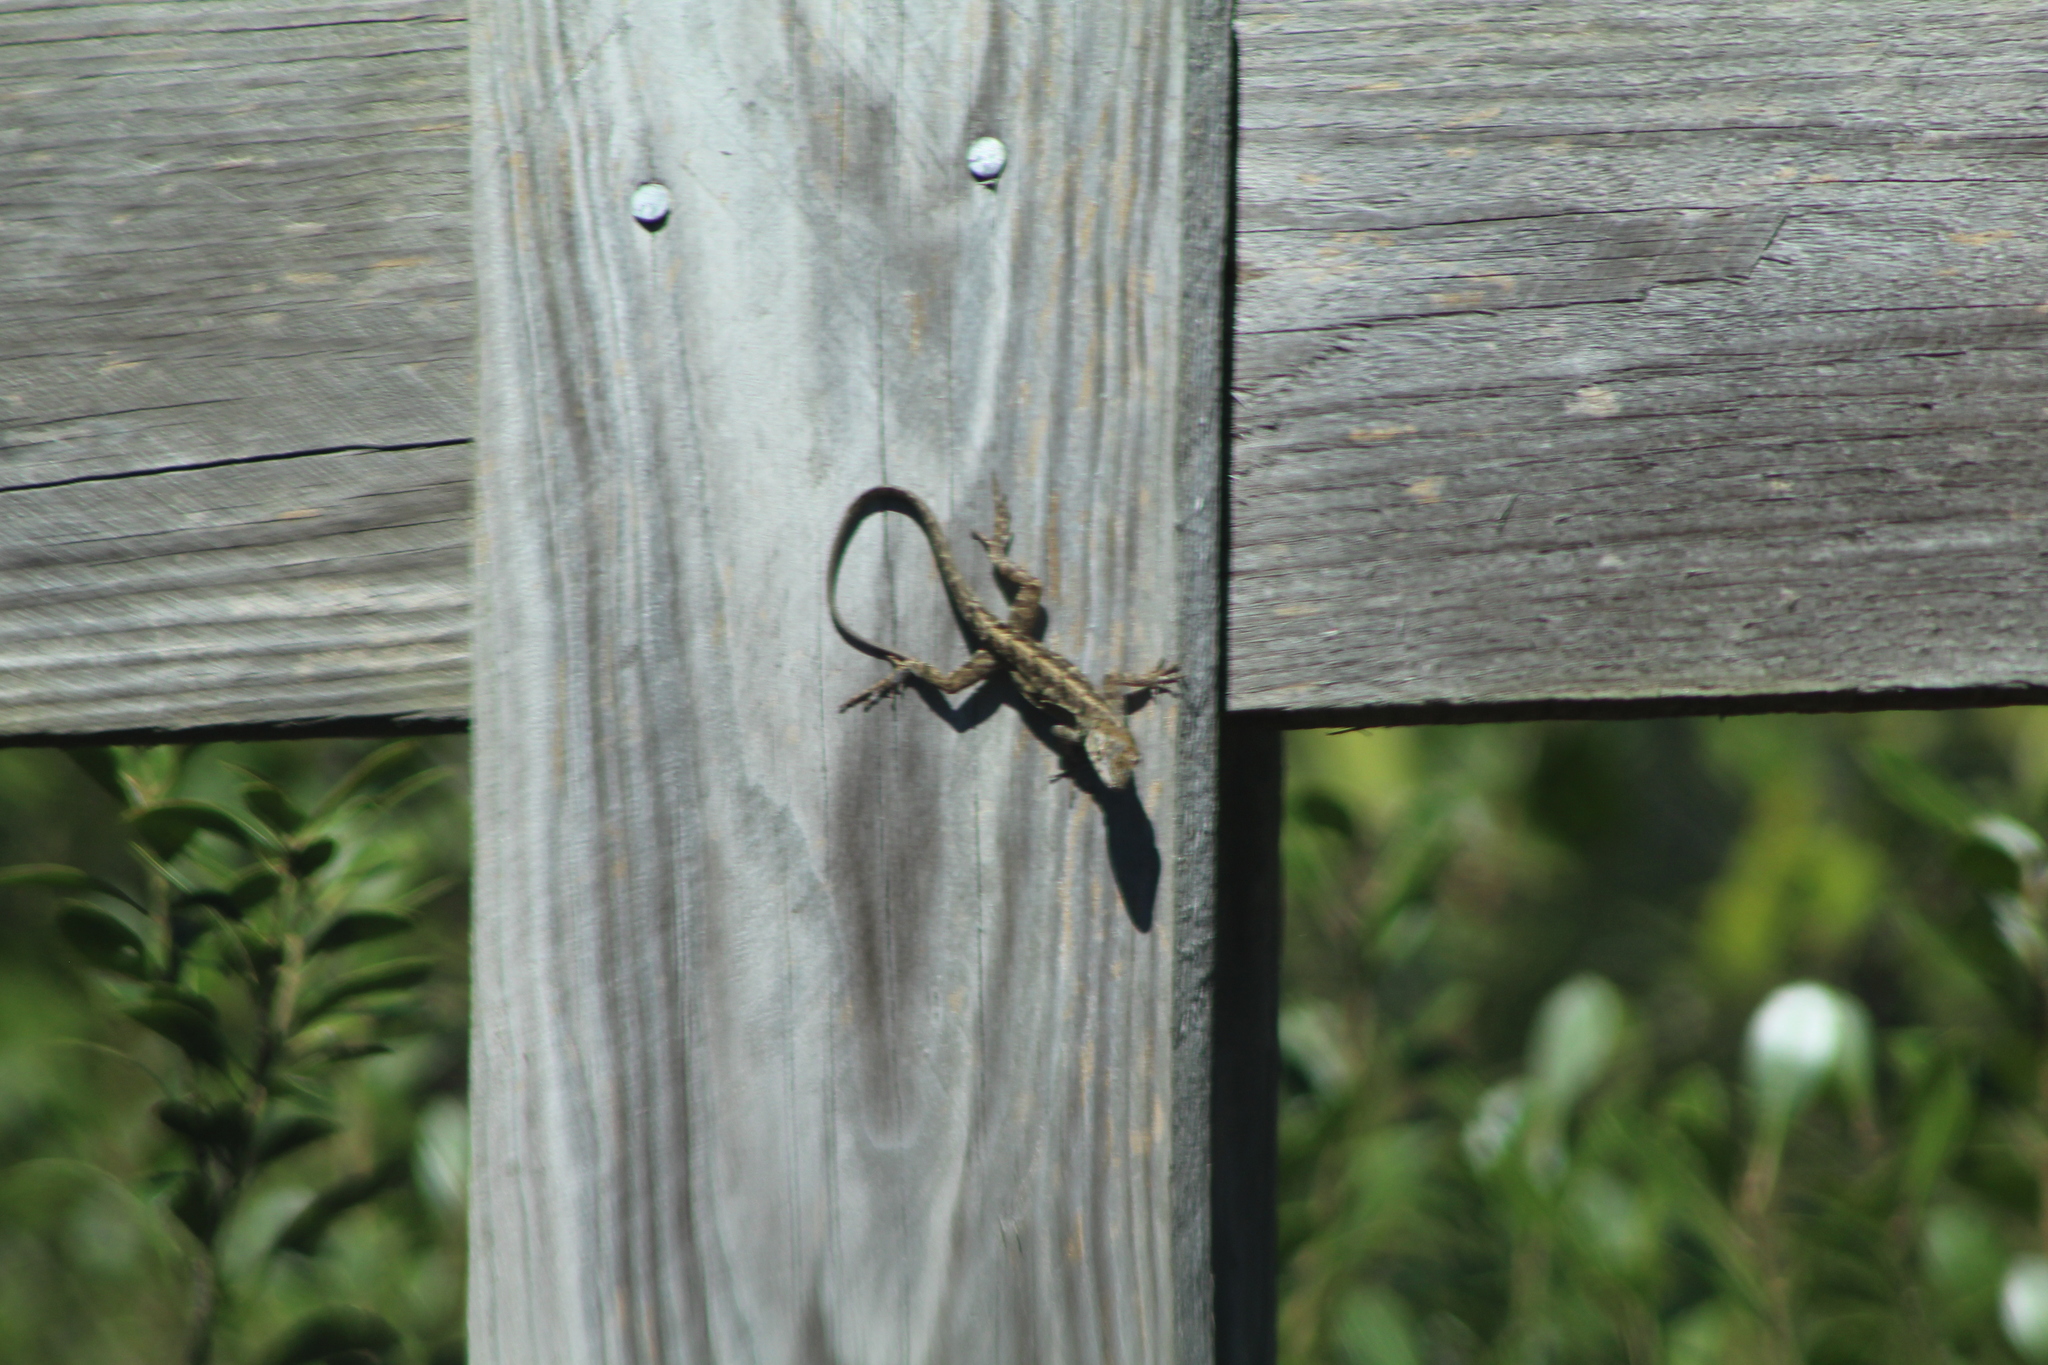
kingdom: Animalia
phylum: Chordata
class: Squamata
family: Dactyloidae
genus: Anolis
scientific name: Anolis sagrei
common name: Brown anole
